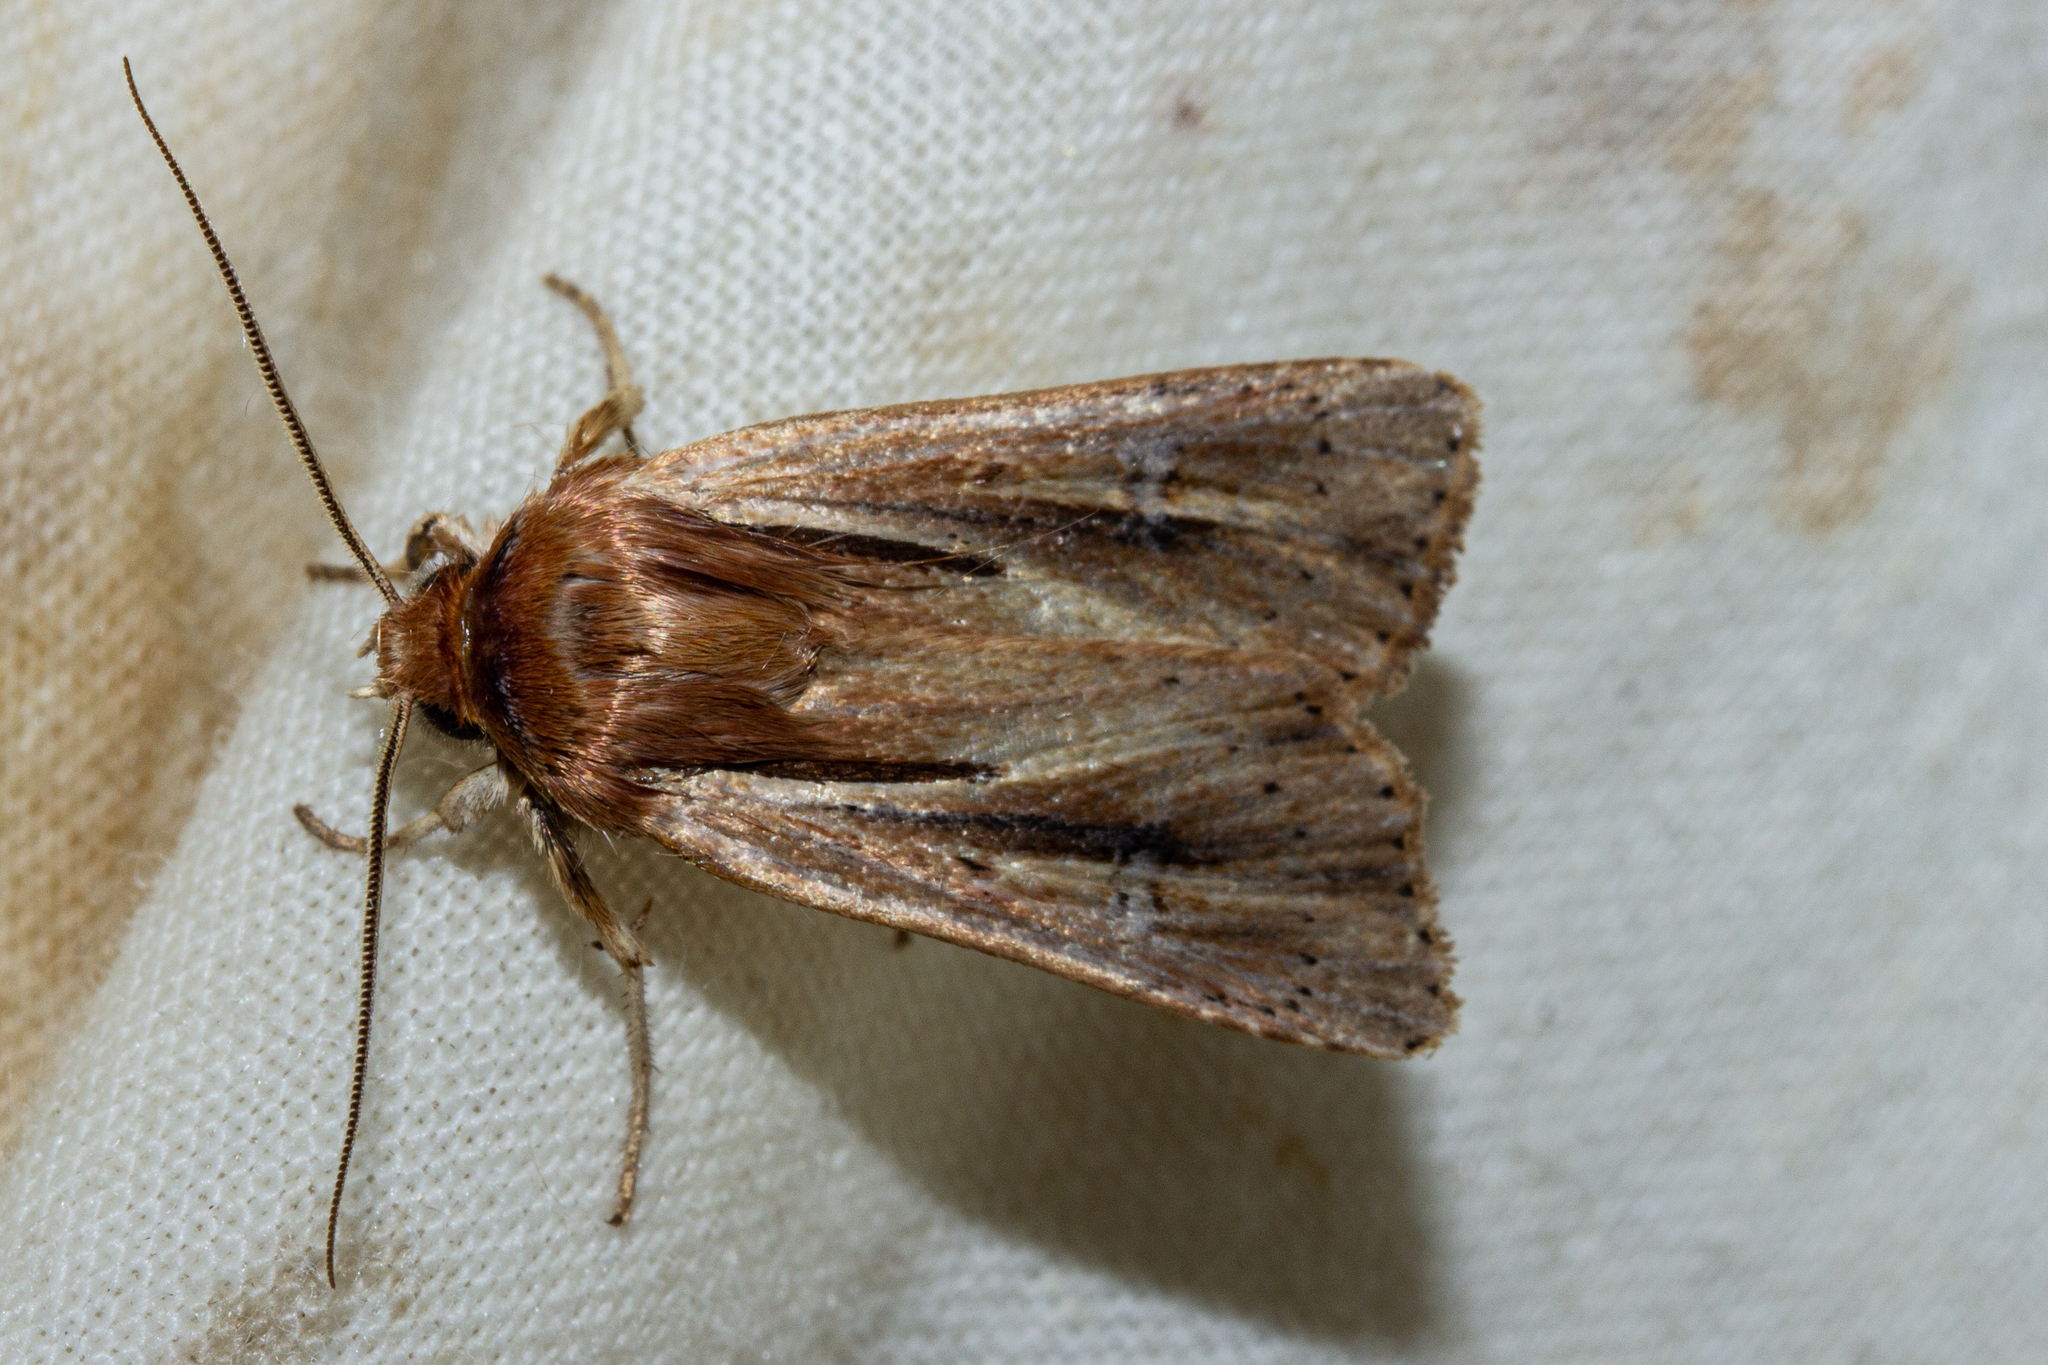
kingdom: Animalia
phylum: Arthropoda
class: Insecta
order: Lepidoptera
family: Noctuidae
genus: Ichneutica
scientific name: Ichneutica propria
